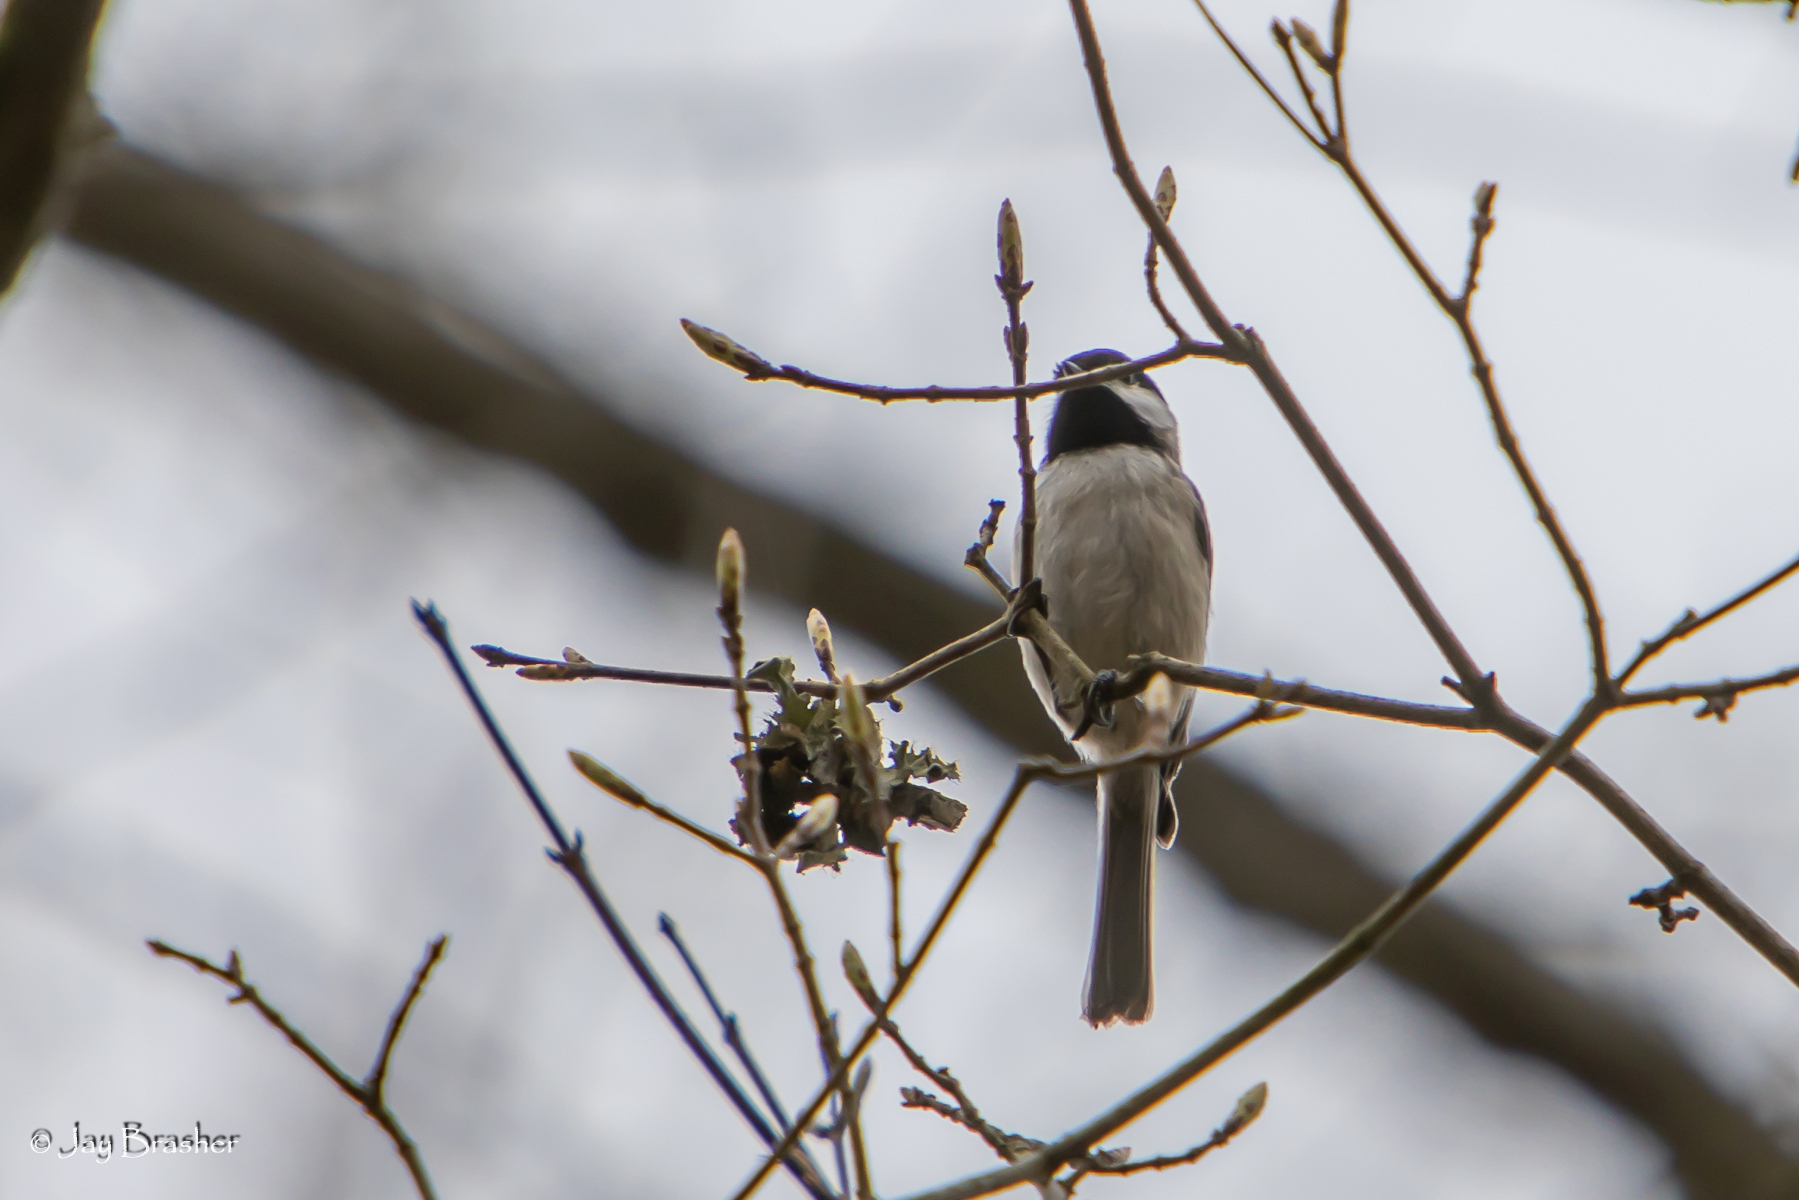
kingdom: Animalia
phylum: Chordata
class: Aves
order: Passeriformes
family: Paridae
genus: Poecile
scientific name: Poecile carolinensis
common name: Carolina chickadee
